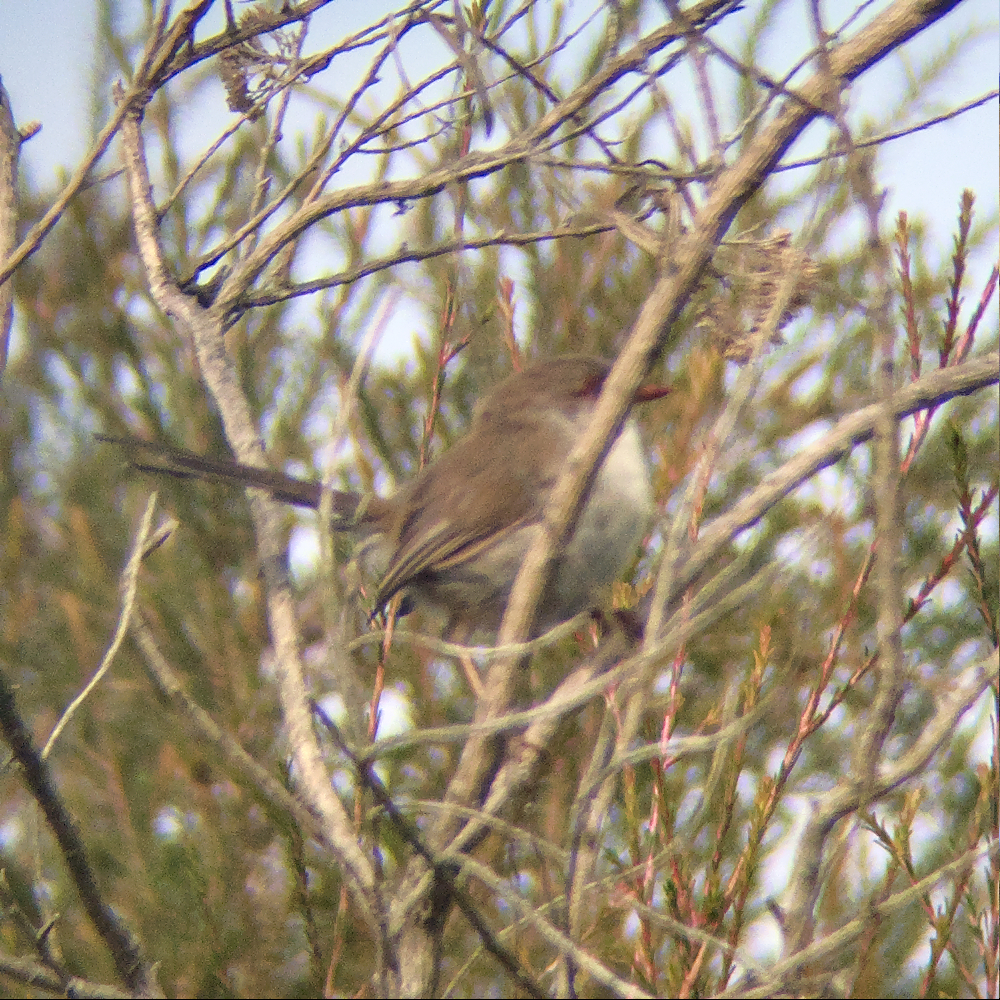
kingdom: Animalia
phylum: Chordata
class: Aves
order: Passeriformes
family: Maluridae
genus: Malurus
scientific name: Malurus cyaneus
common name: Superb fairywren
